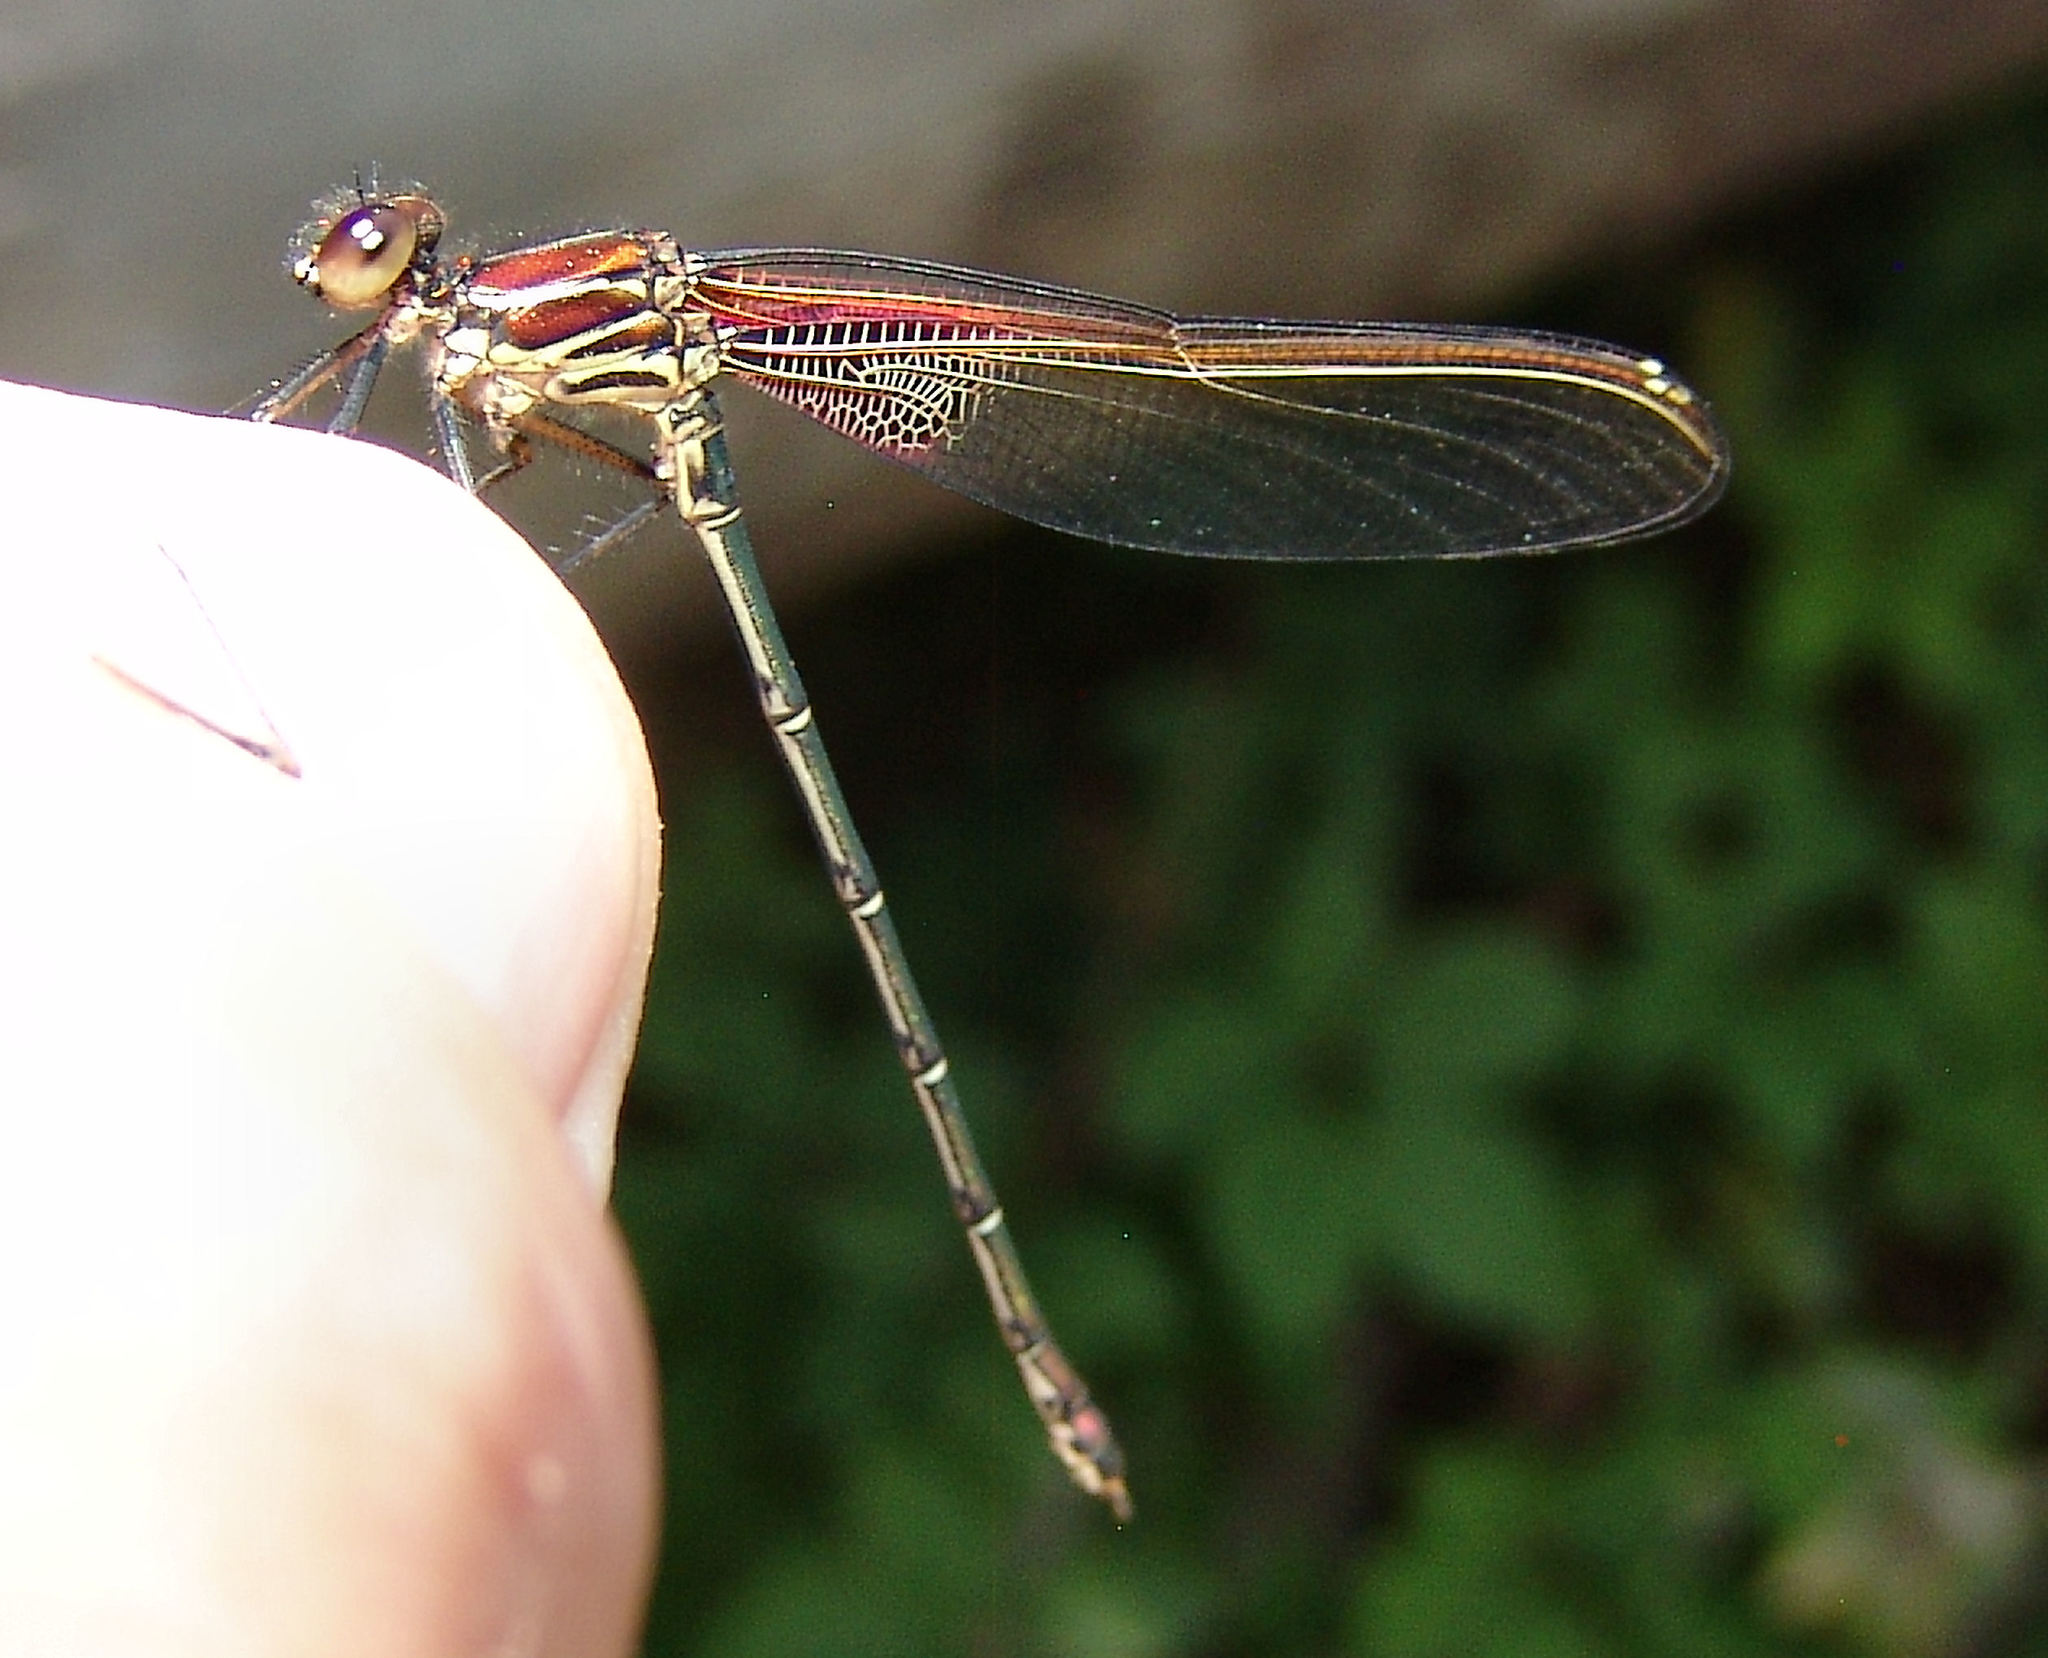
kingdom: Animalia
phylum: Arthropoda
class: Insecta
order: Odonata
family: Calopterygidae
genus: Hetaerina
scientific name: Hetaerina americana
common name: American rubyspot
